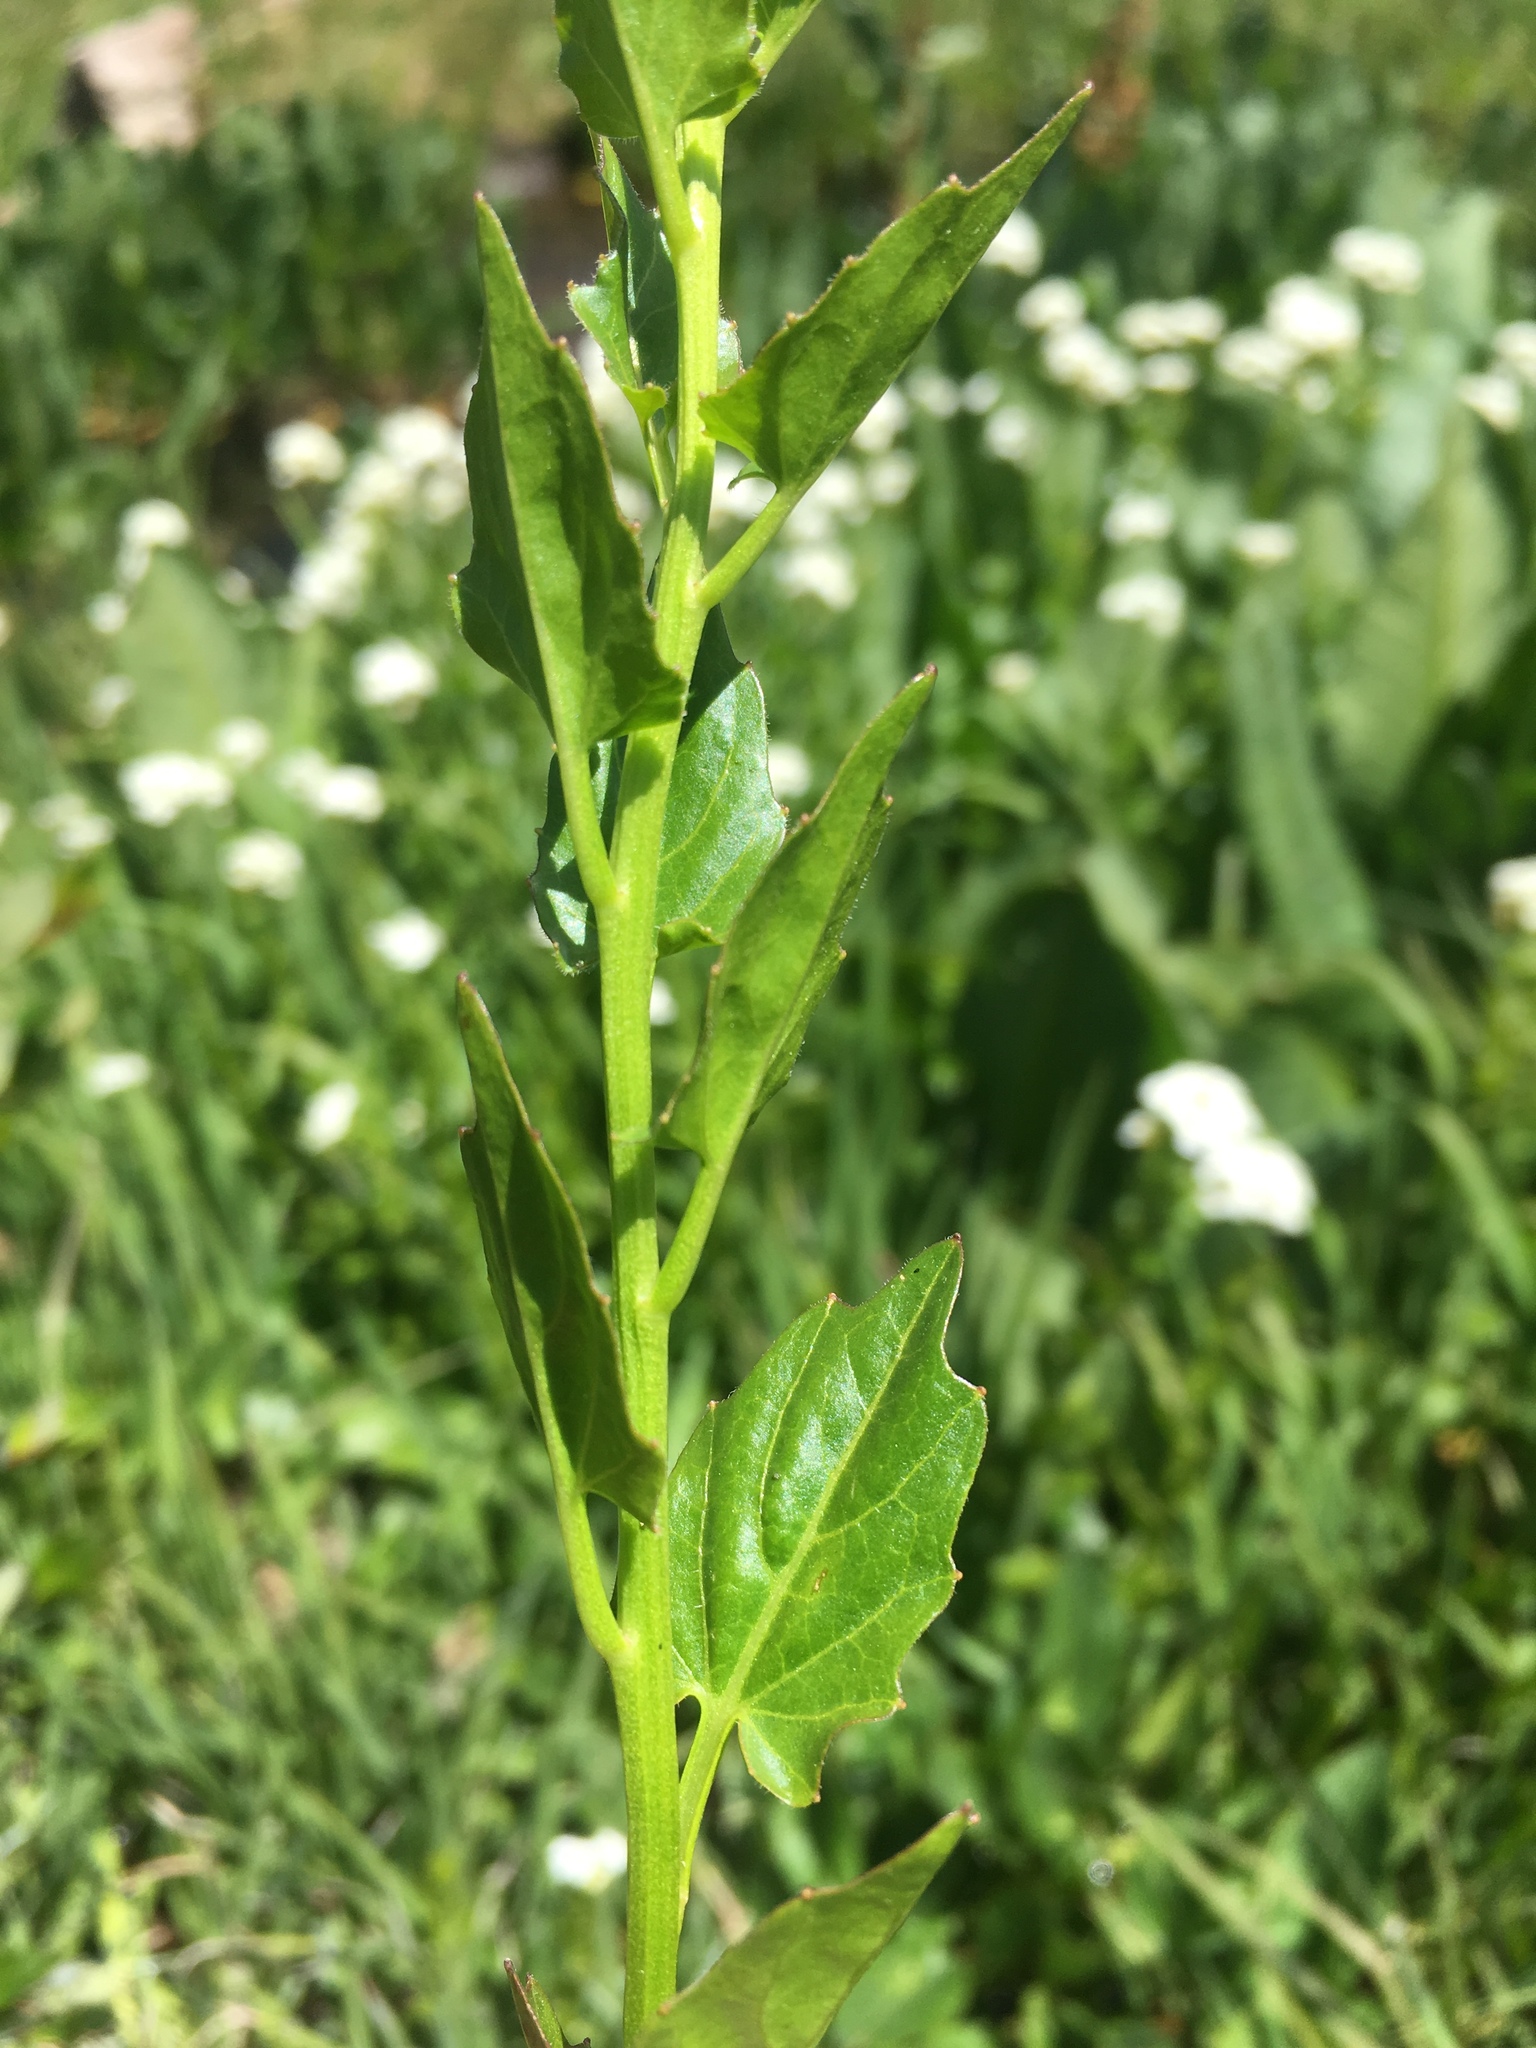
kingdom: Plantae
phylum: Tracheophyta
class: Magnoliopsida
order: Brassicales
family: Brassicaceae
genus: Cardamine
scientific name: Cardamine cordifolia
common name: Heart-leaf bittercress
